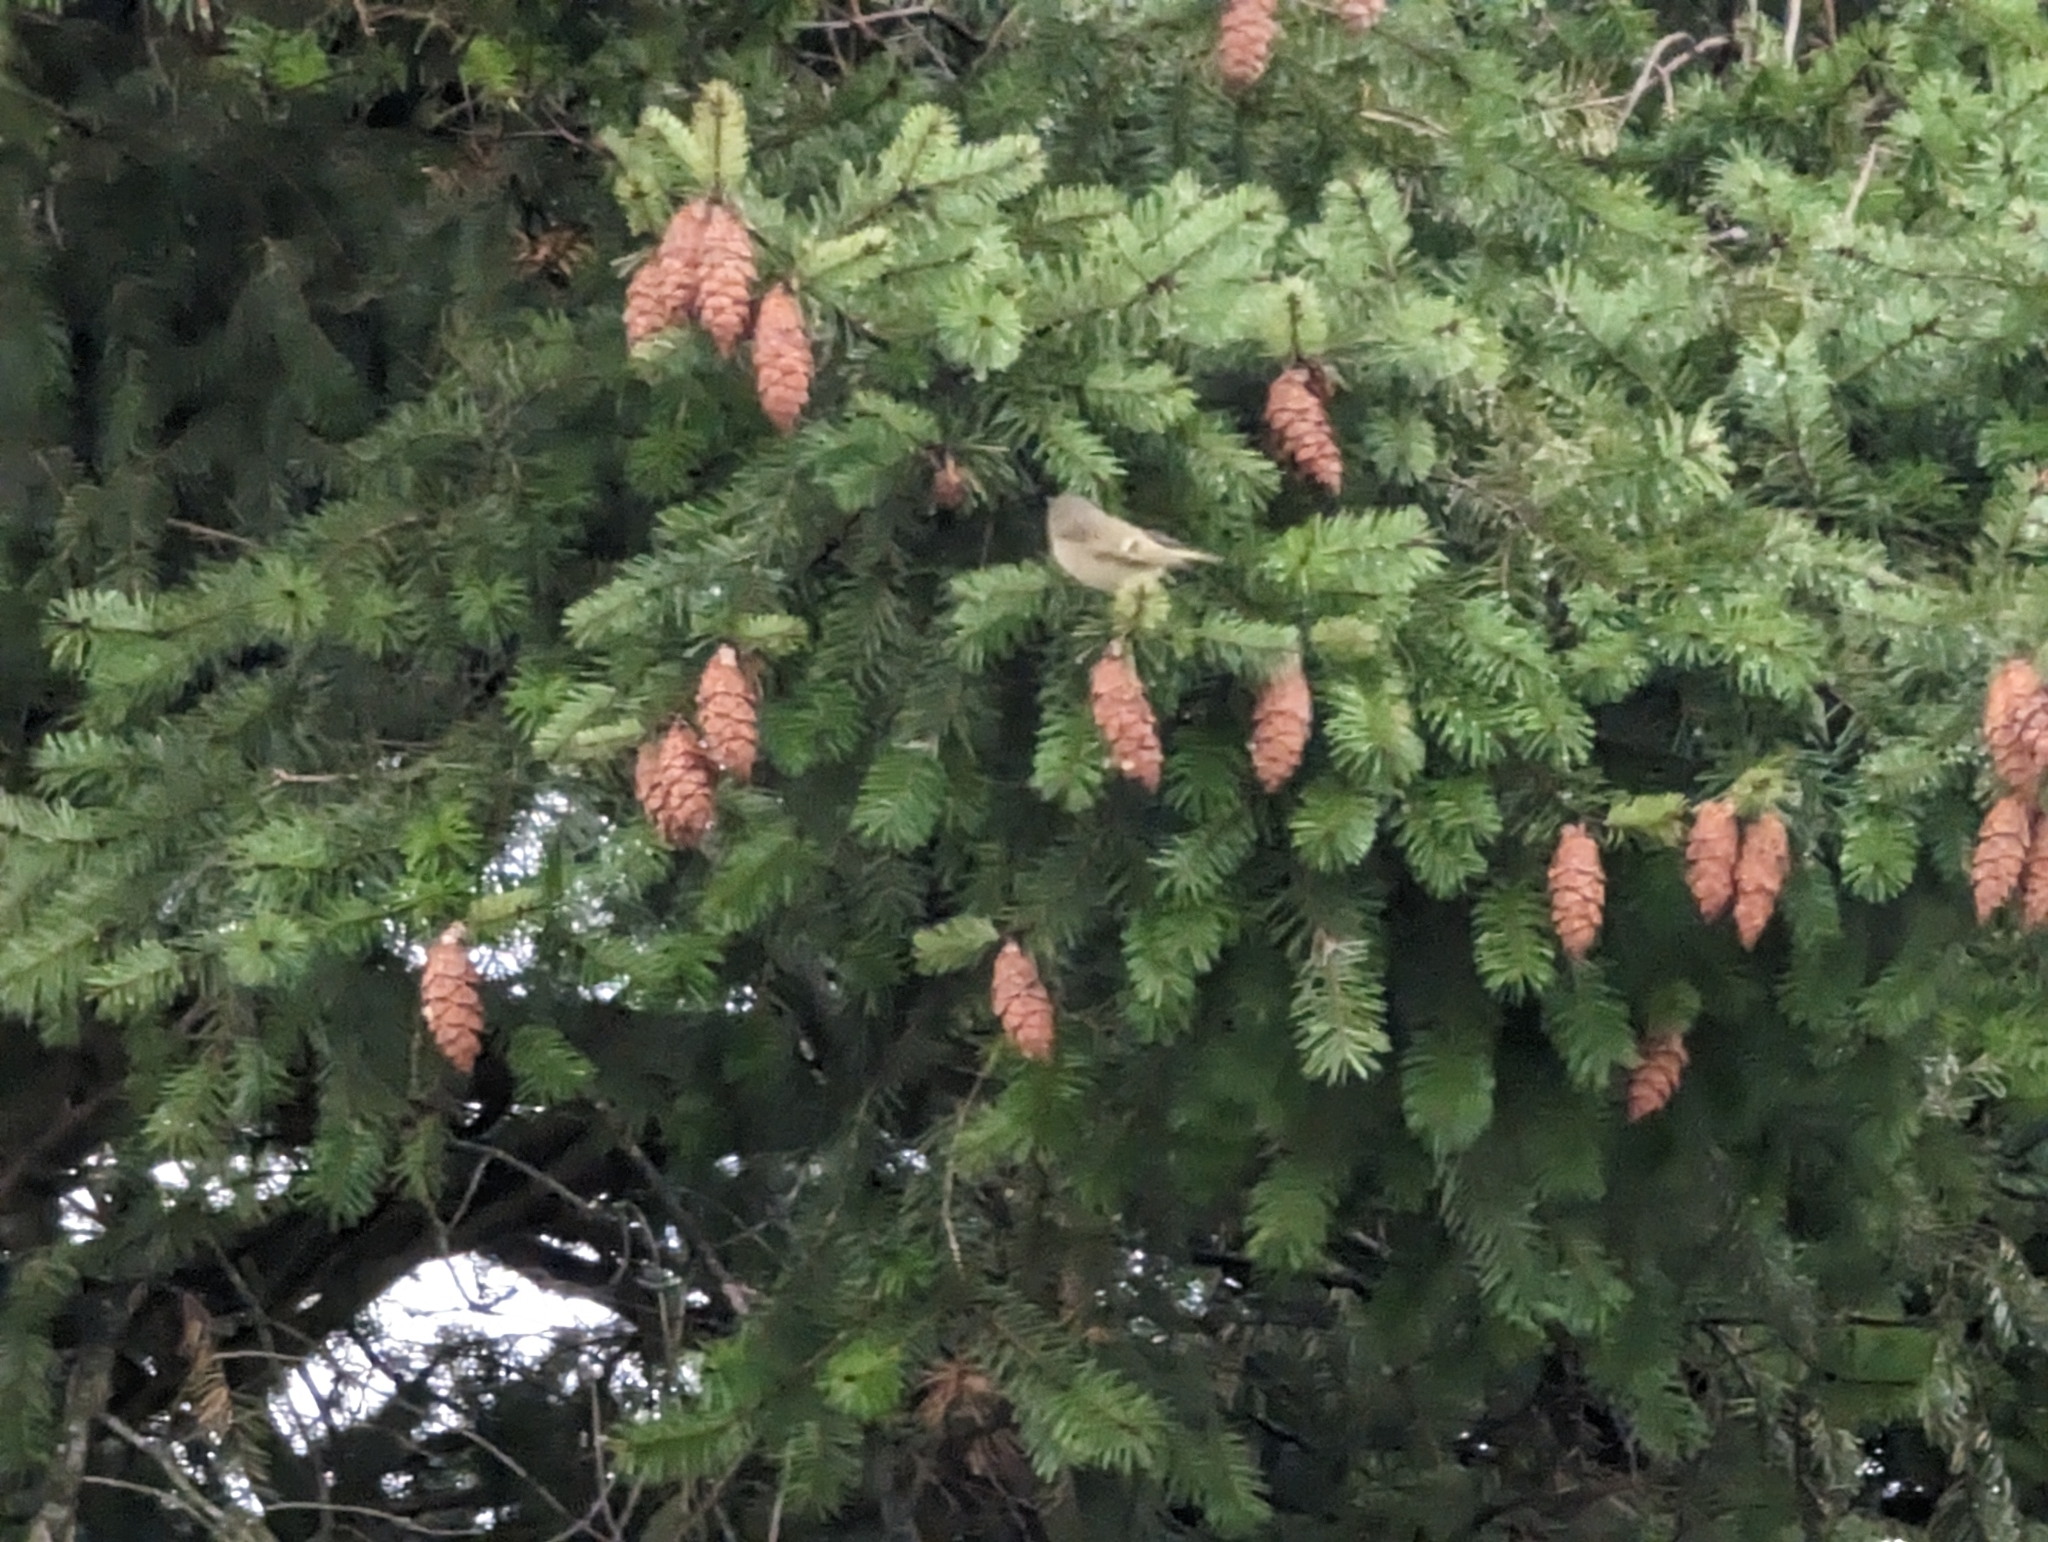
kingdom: Animalia
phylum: Chordata
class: Aves
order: Passeriformes
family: Regulidae
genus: Regulus
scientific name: Regulus calendula
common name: Ruby-crowned kinglet
